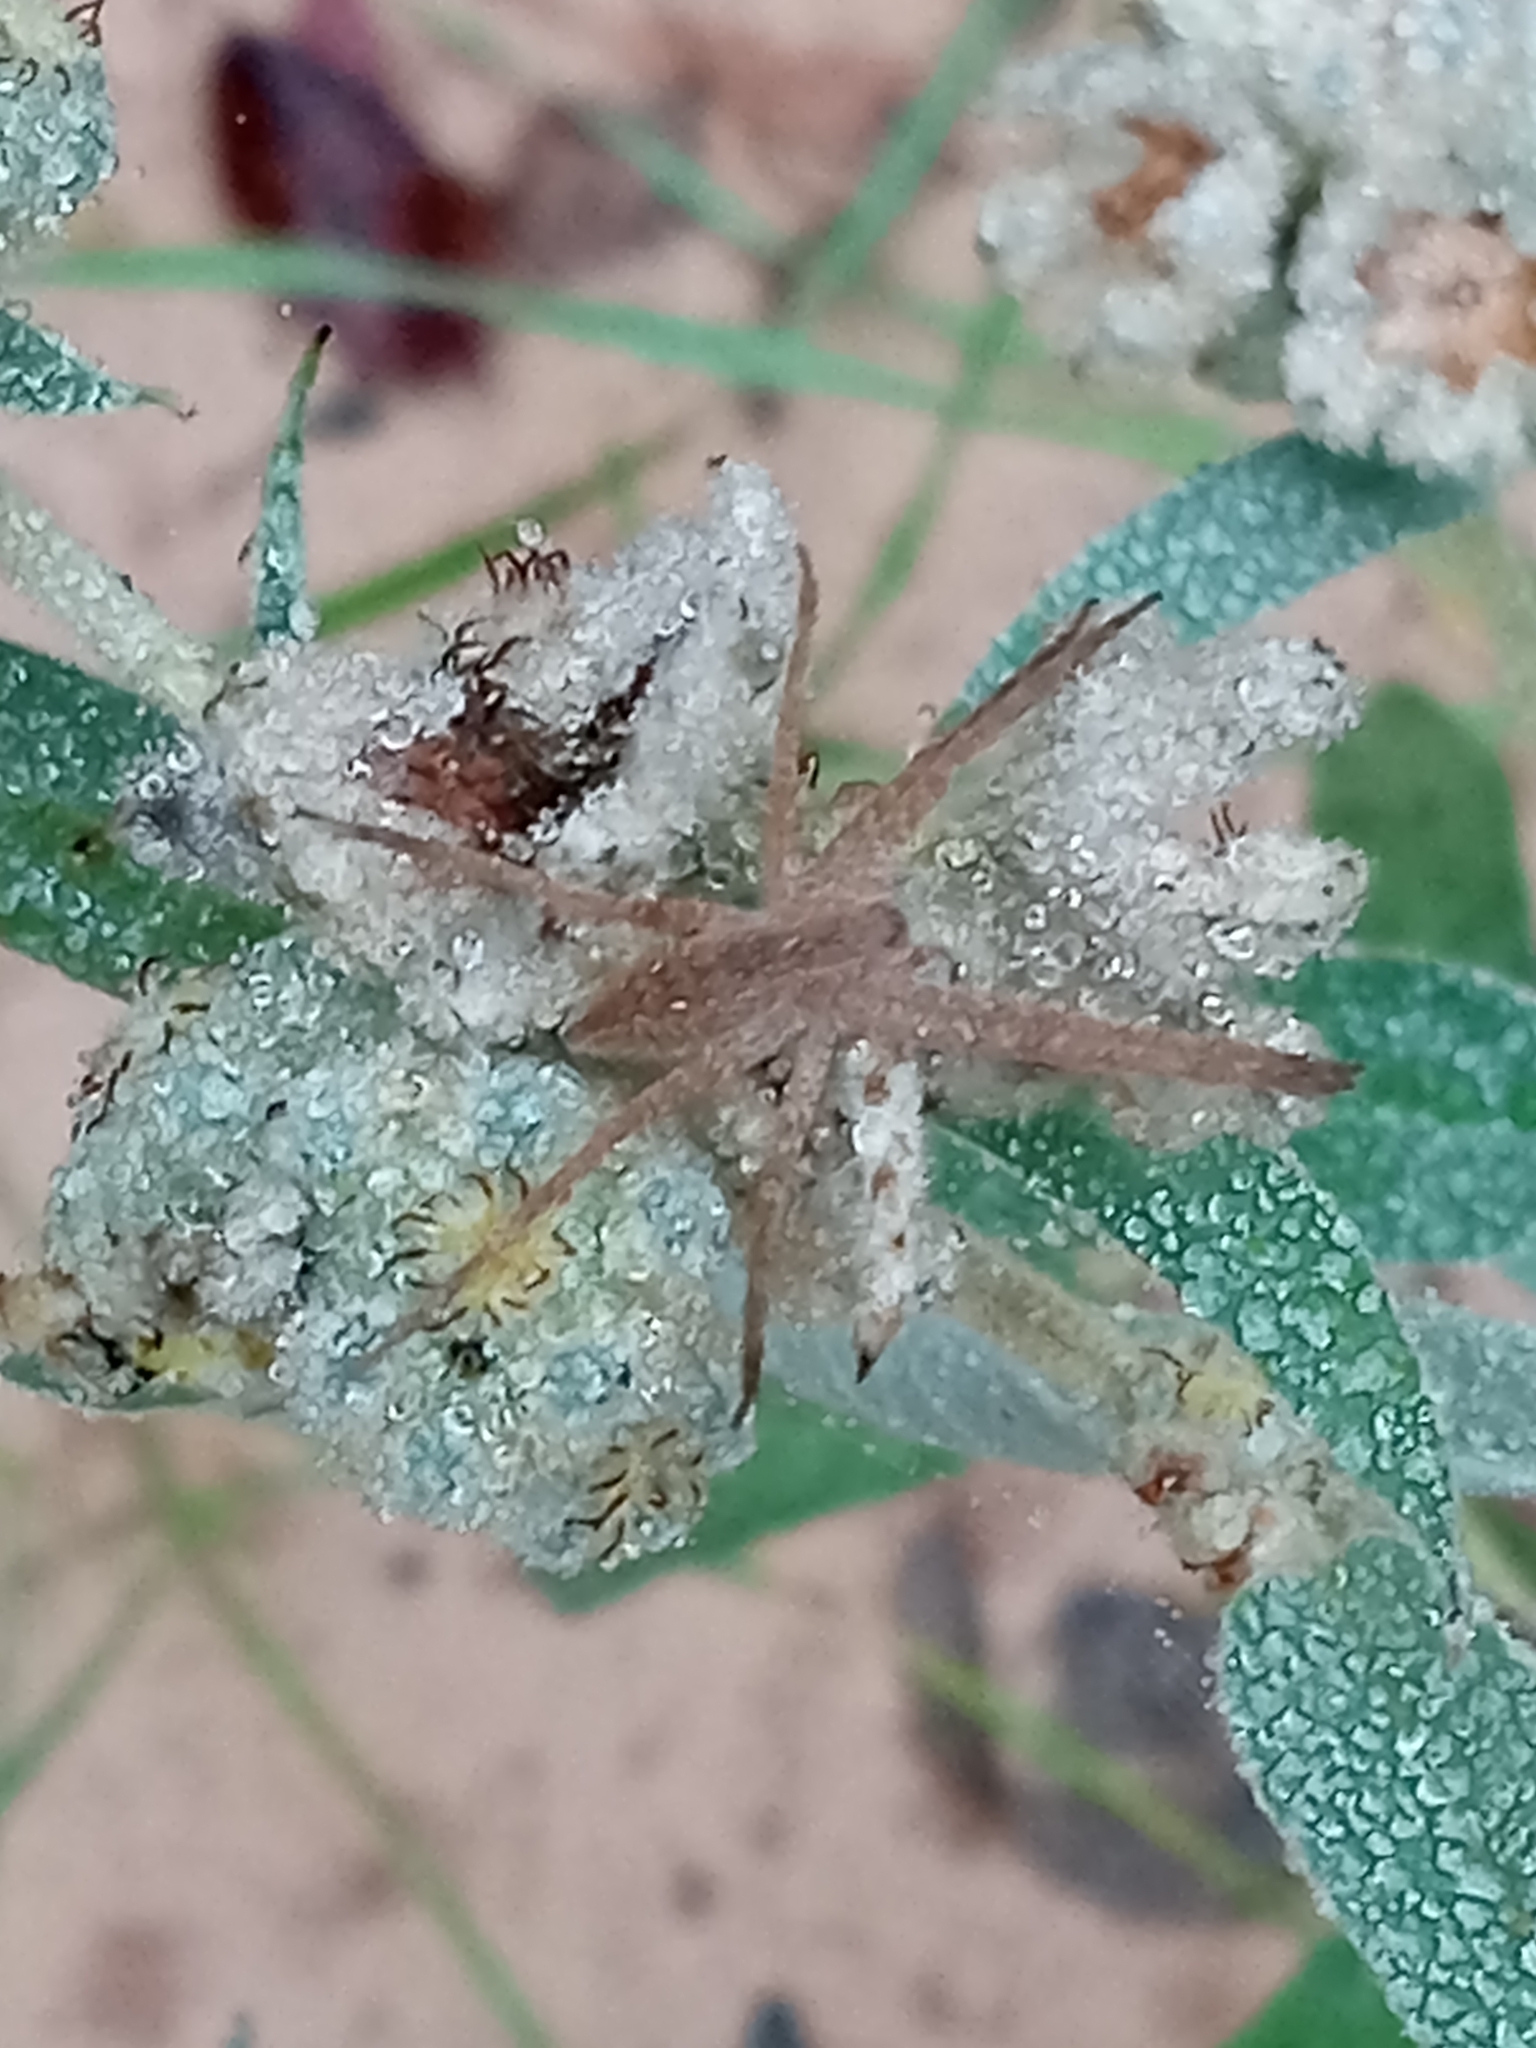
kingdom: Animalia
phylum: Arthropoda
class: Arachnida
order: Araneae
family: Pisauridae
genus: Pisaurina
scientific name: Pisaurina mira
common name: American nursery web spider
